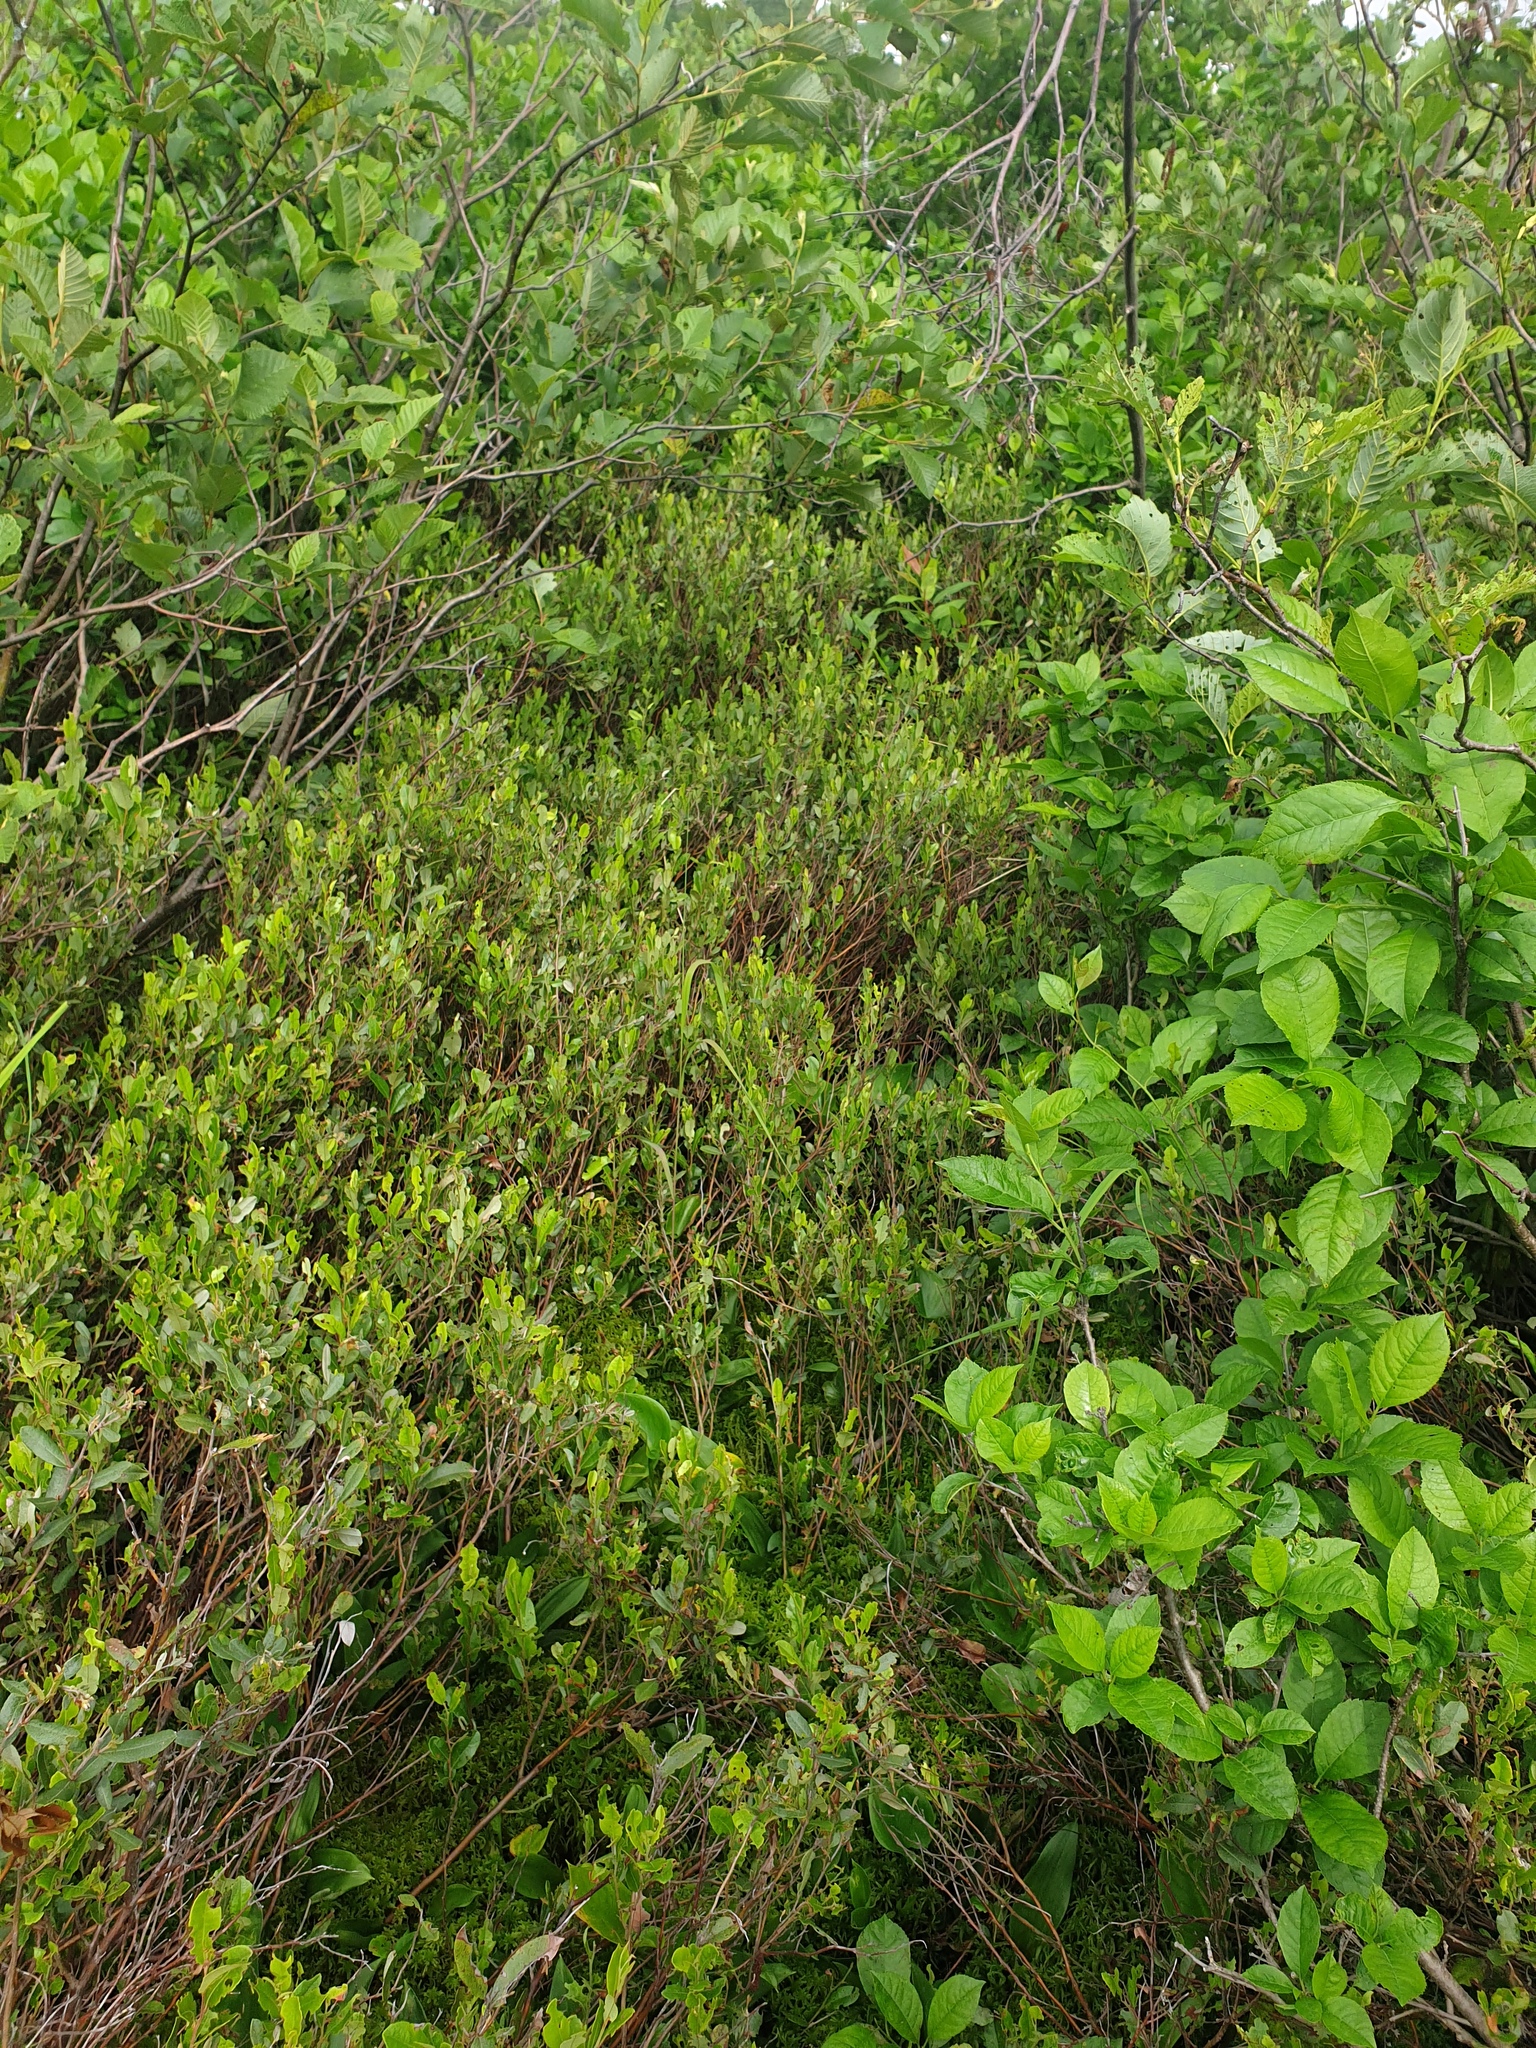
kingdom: Plantae
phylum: Tracheophyta
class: Magnoliopsida
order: Ericales
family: Ericaceae
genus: Chamaedaphne
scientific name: Chamaedaphne calyculata
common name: Leatherleaf
